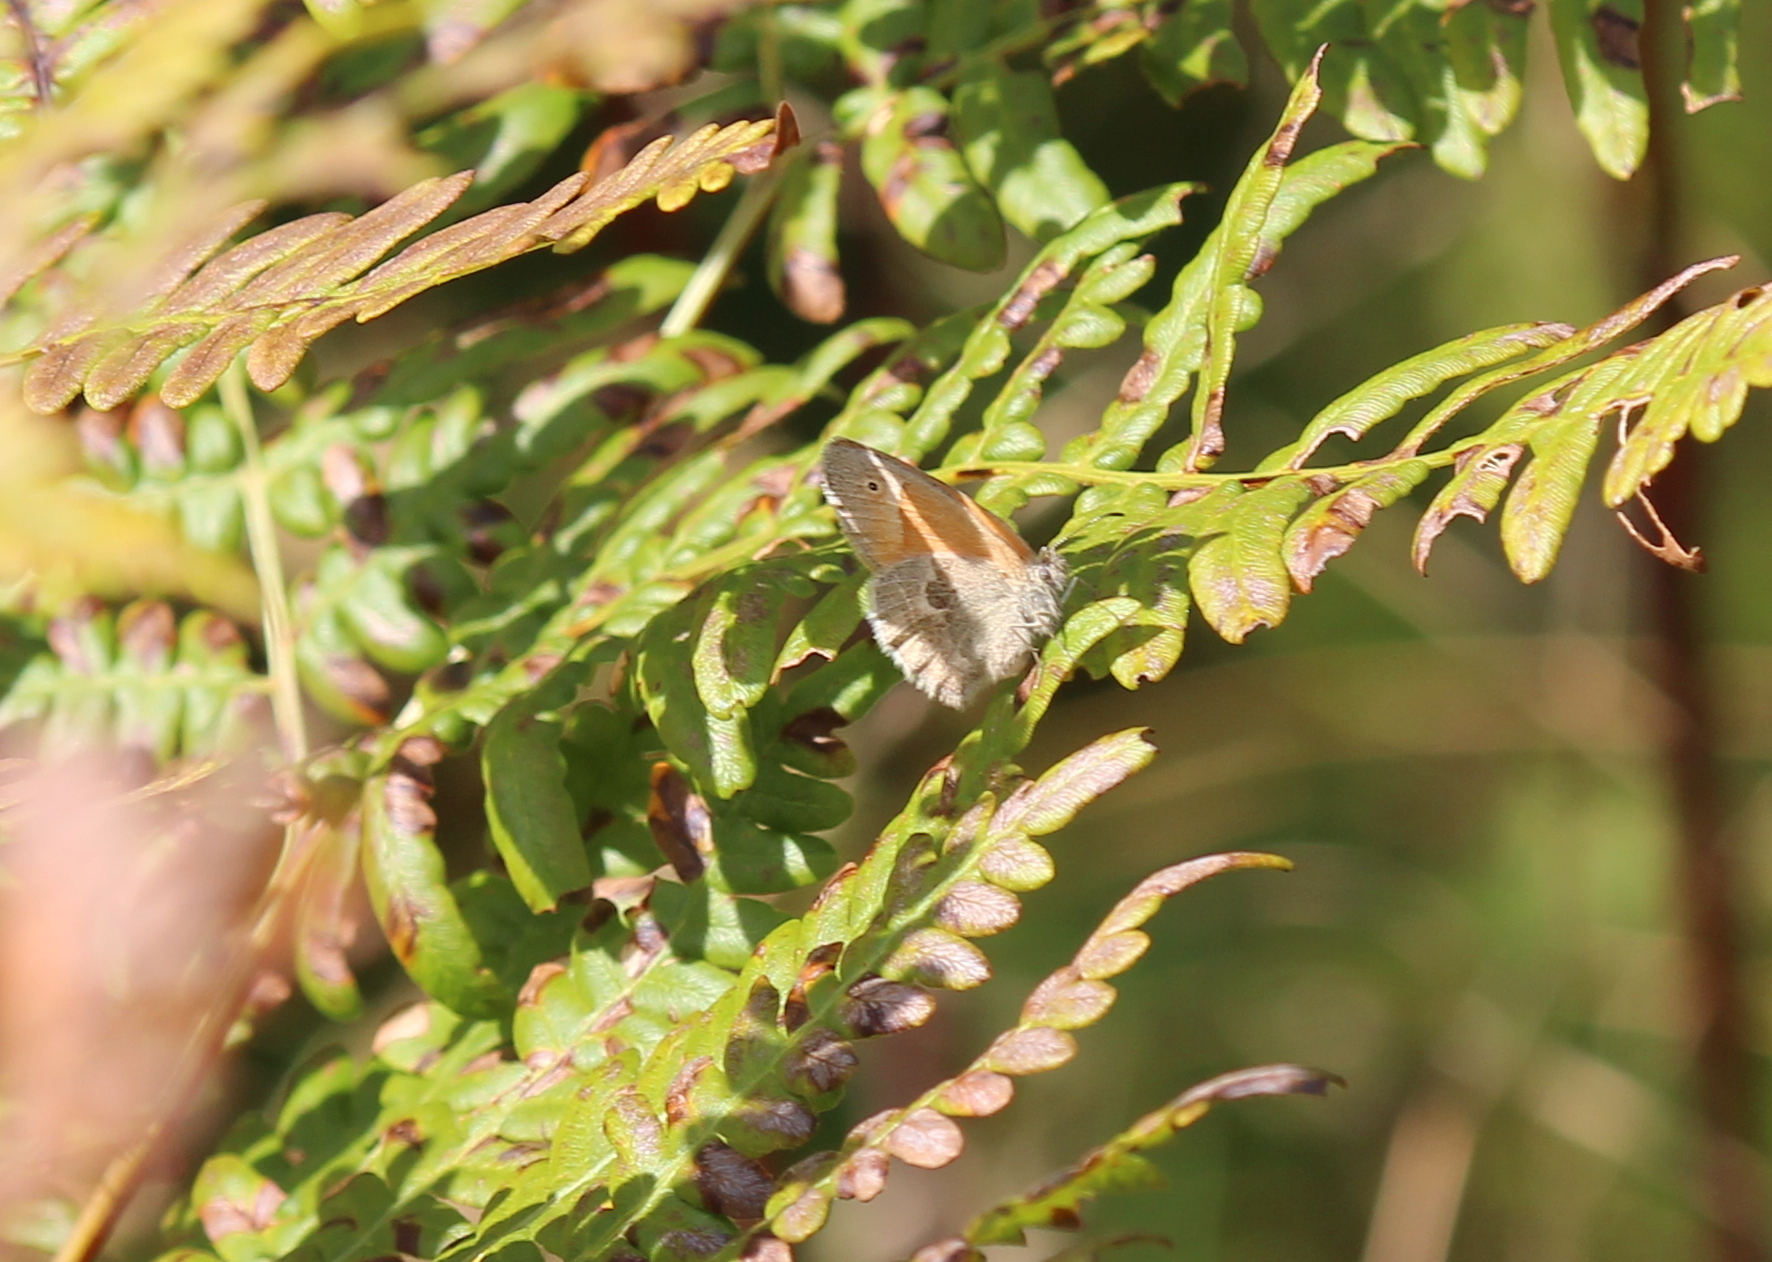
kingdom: Animalia
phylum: Arthropoda
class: Insecta
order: Lepidoptera
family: Nymphalidae
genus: Coenonympha
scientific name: Coenonympha california
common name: Common ringlet
